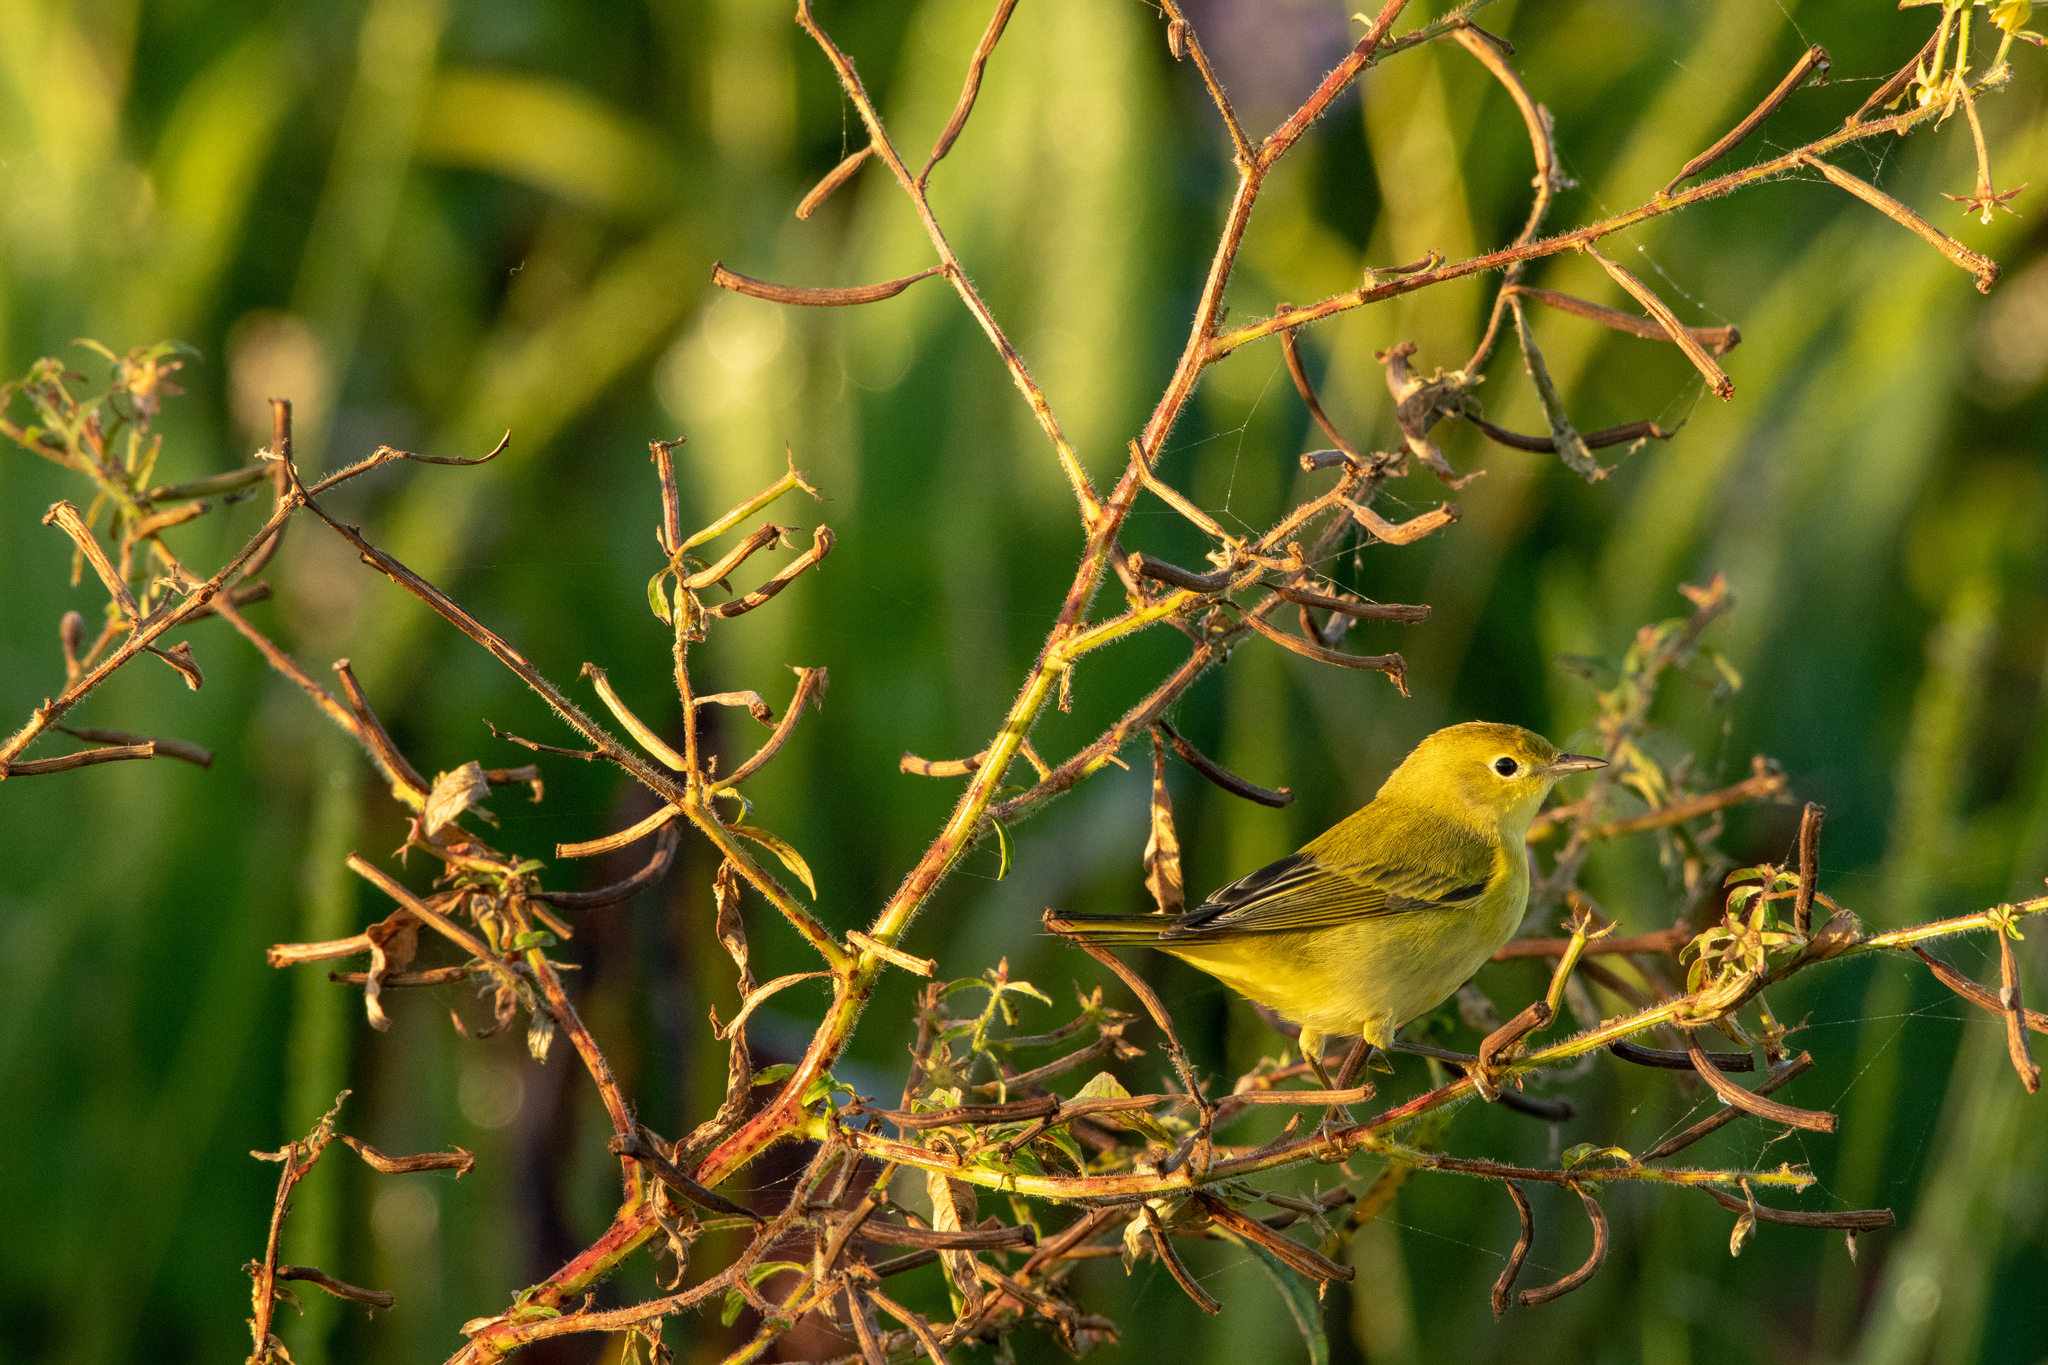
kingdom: Animalia
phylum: Chordata
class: Aves
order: Passeriformes
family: Parulidae
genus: Setophaga
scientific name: Setophaga petechia
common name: Yellow warbler
